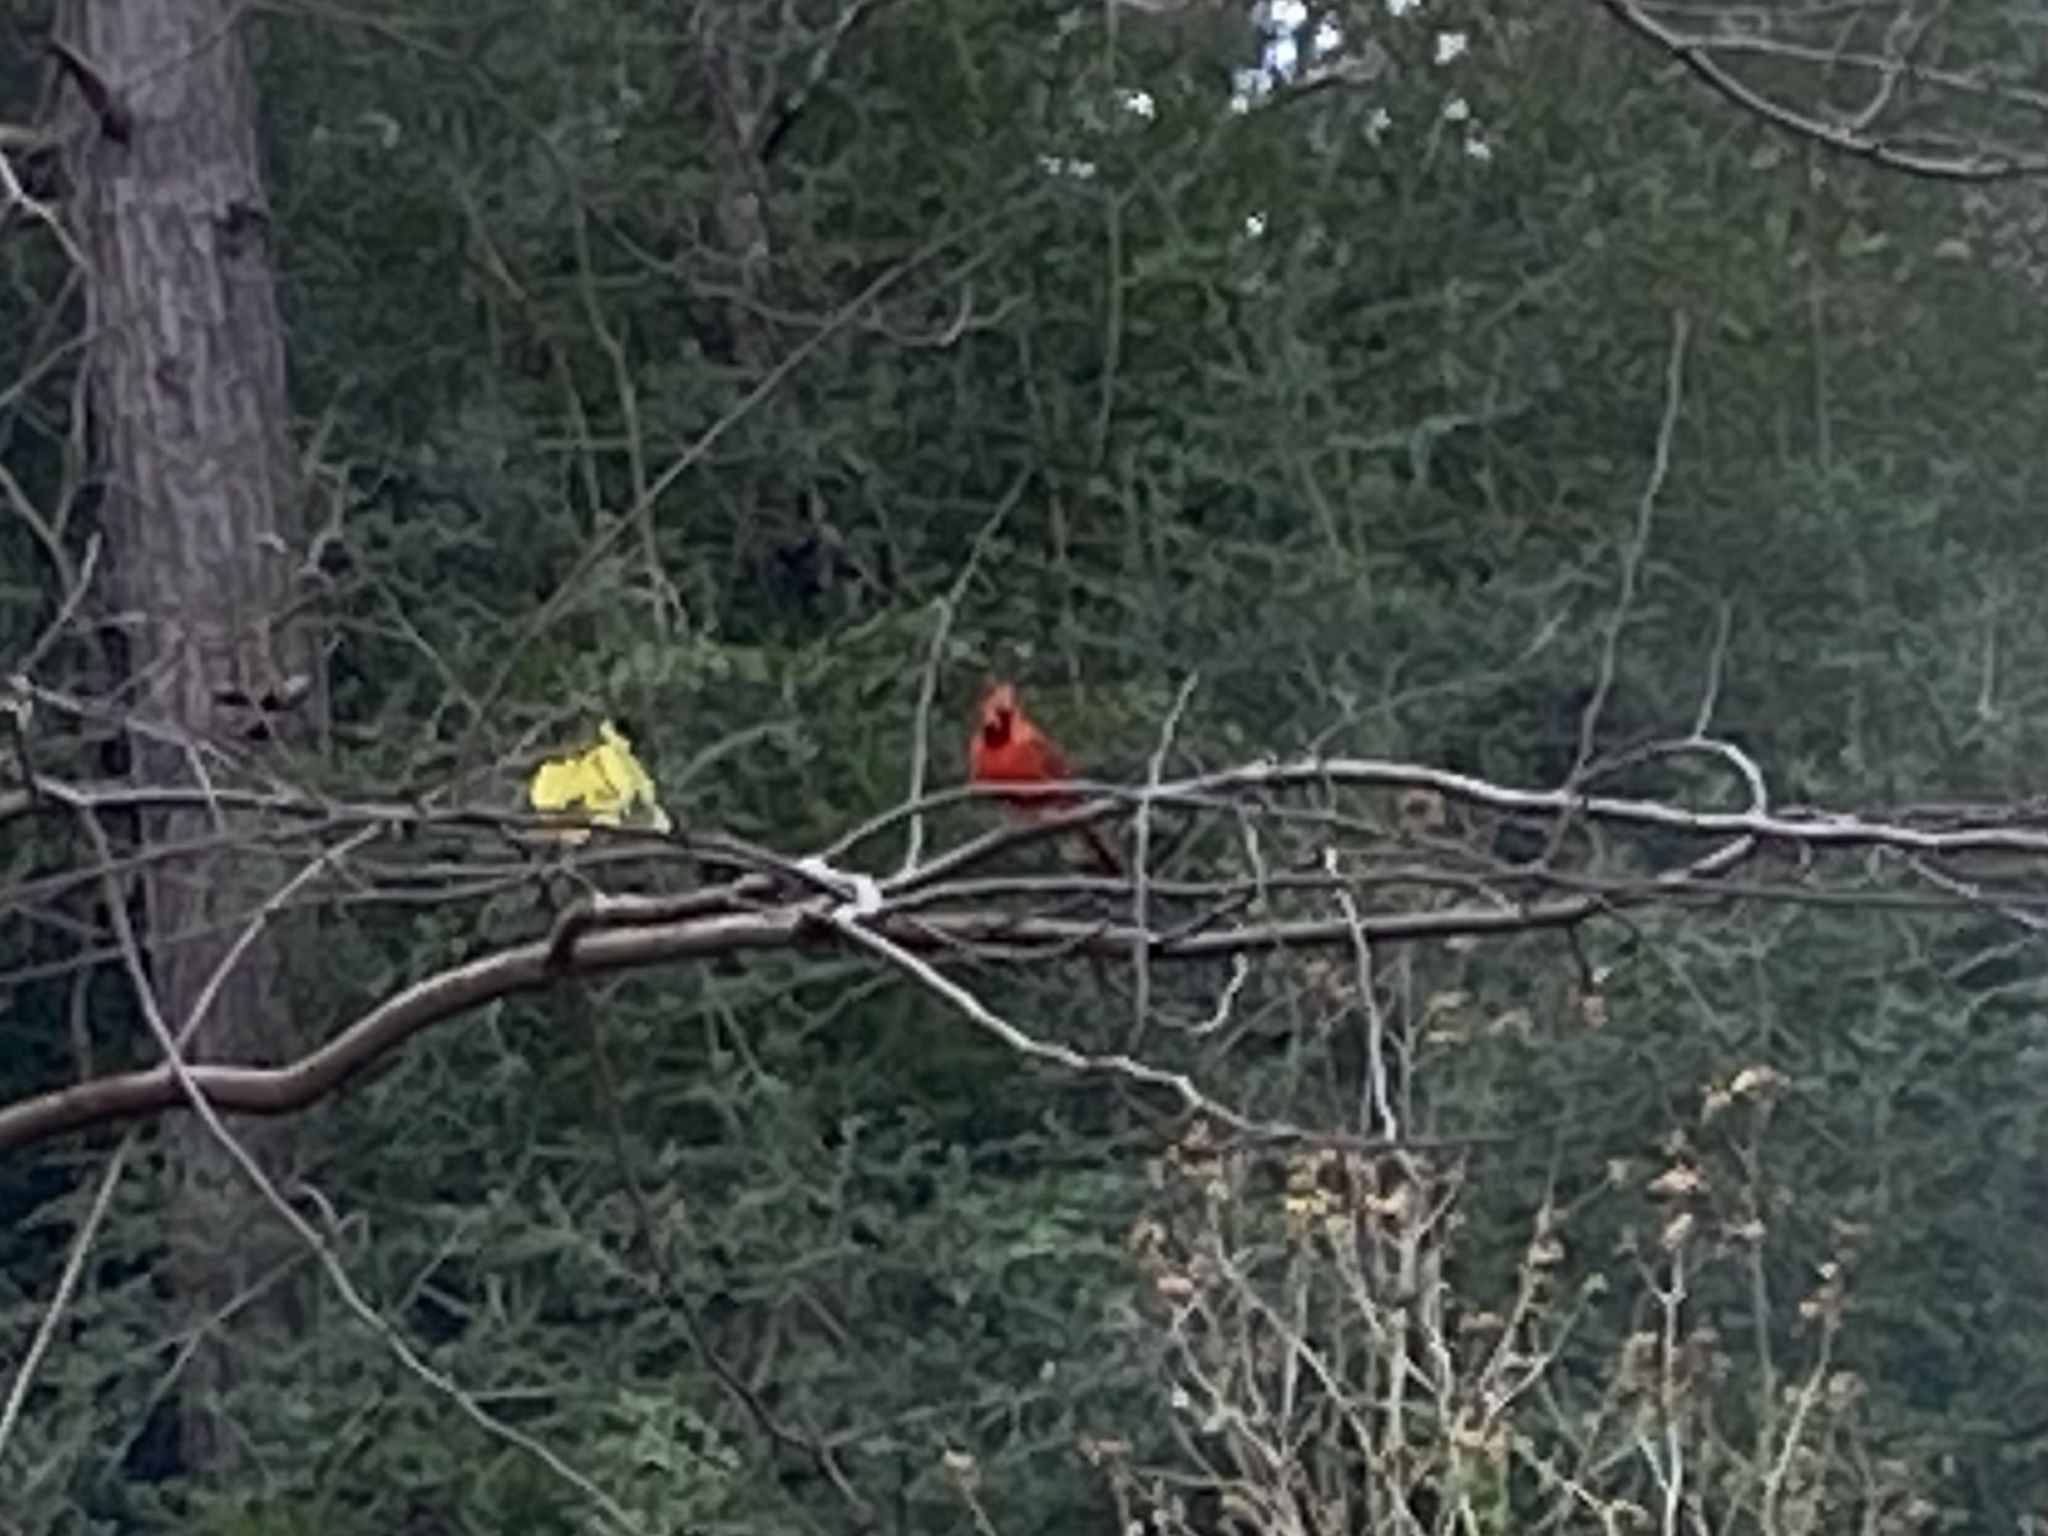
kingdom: Animalia
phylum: Chordata
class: Aves
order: Passeriformes
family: Cardinalidae
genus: Cardinalis
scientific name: Cardinalis cardinalis
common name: Northern cardinal
